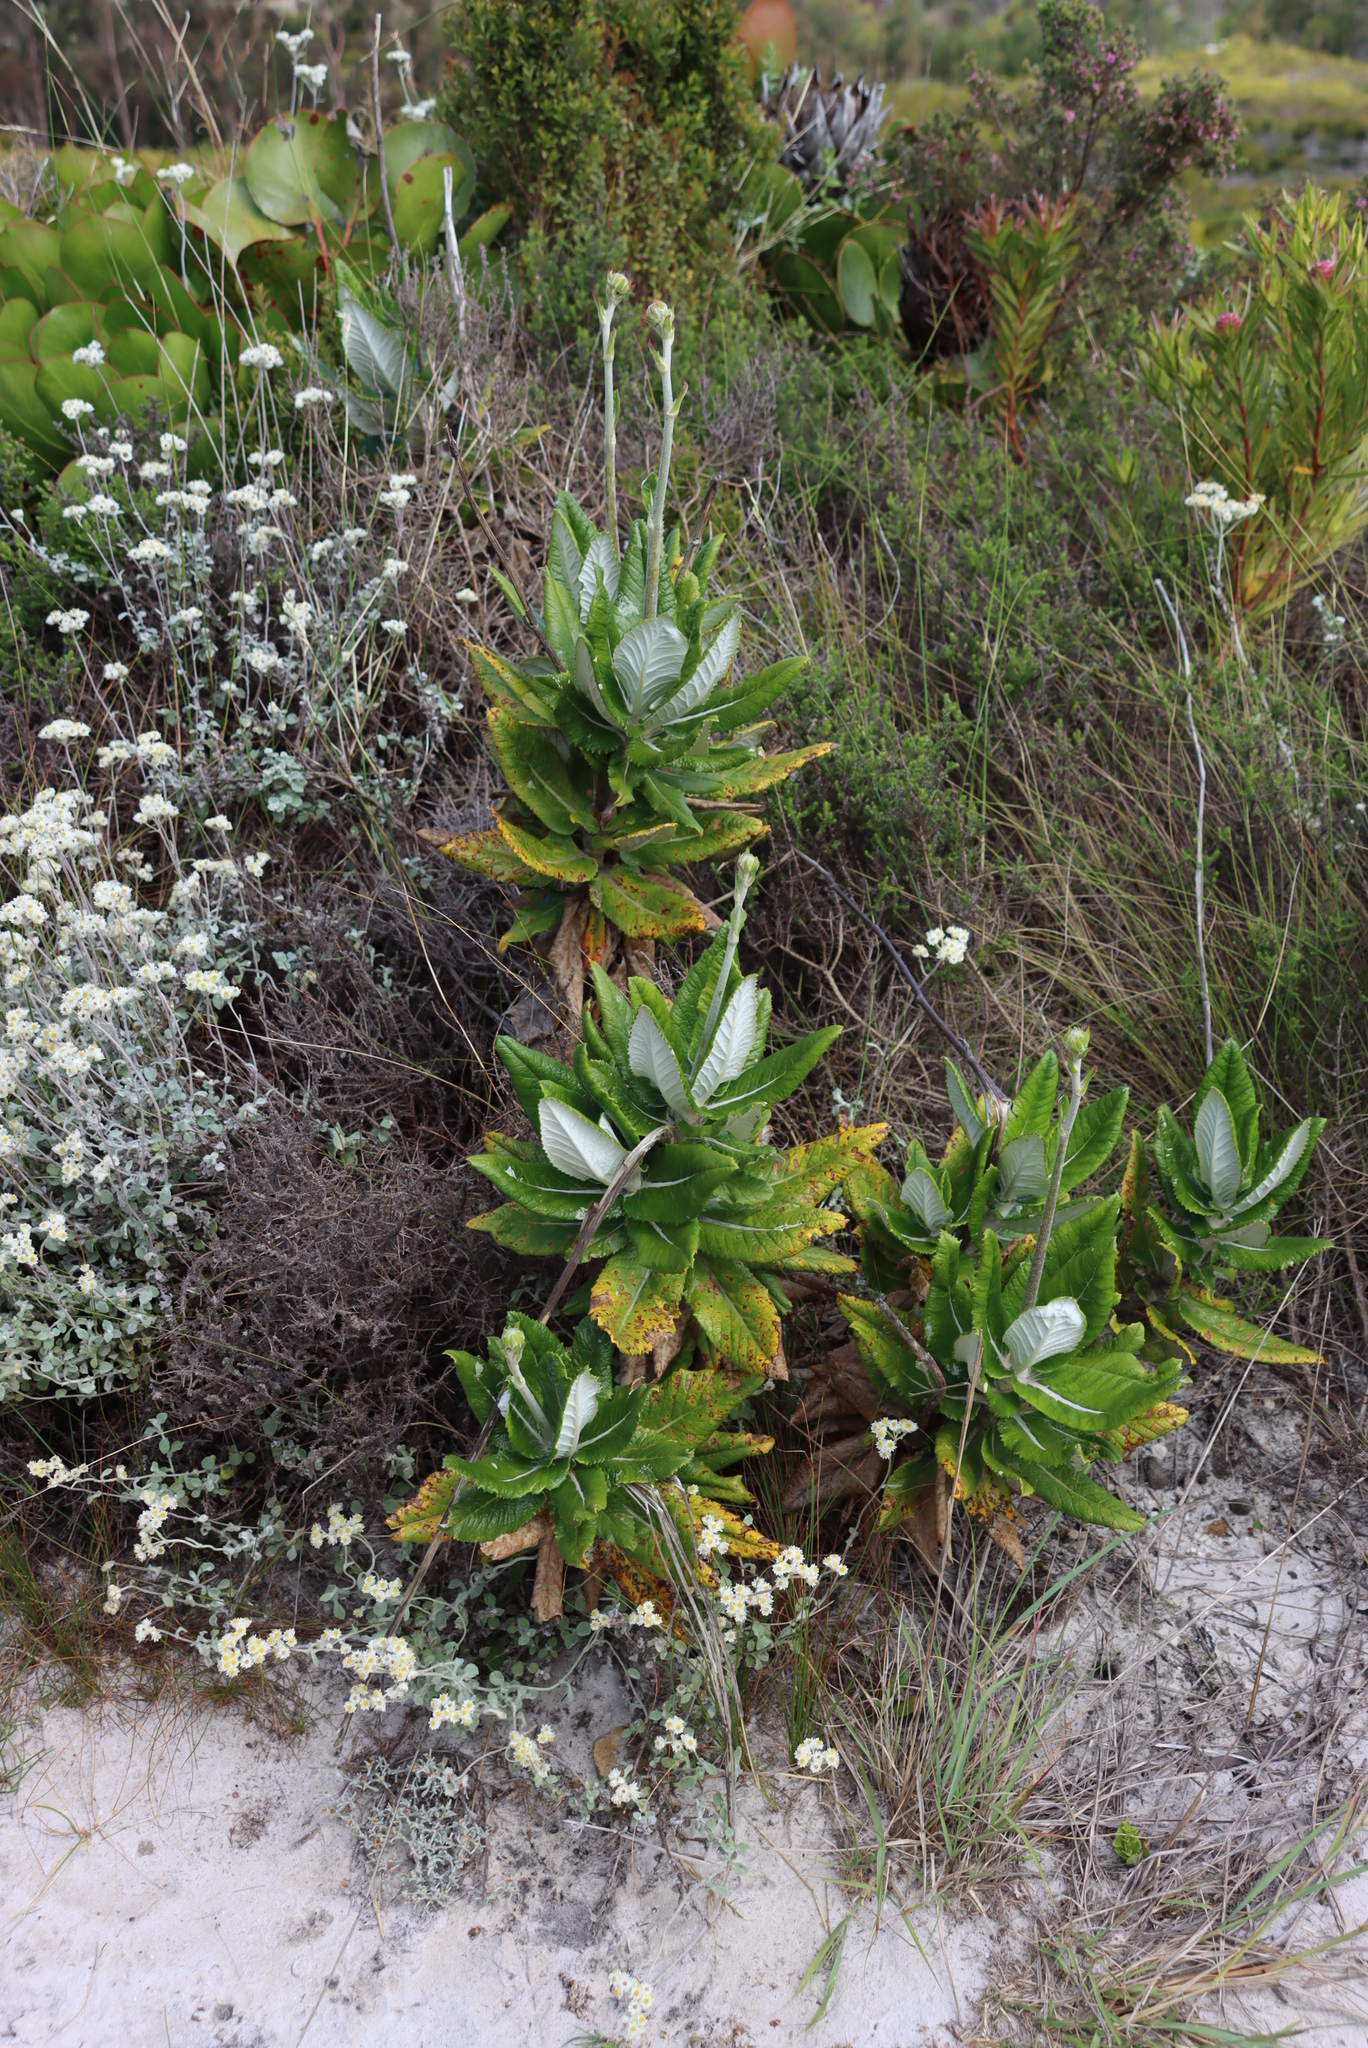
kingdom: Plantae
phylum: Tracheophyta
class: Magnoliopsida
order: Apiales
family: Apiaceae
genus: Hermas
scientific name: Hermas villosa
